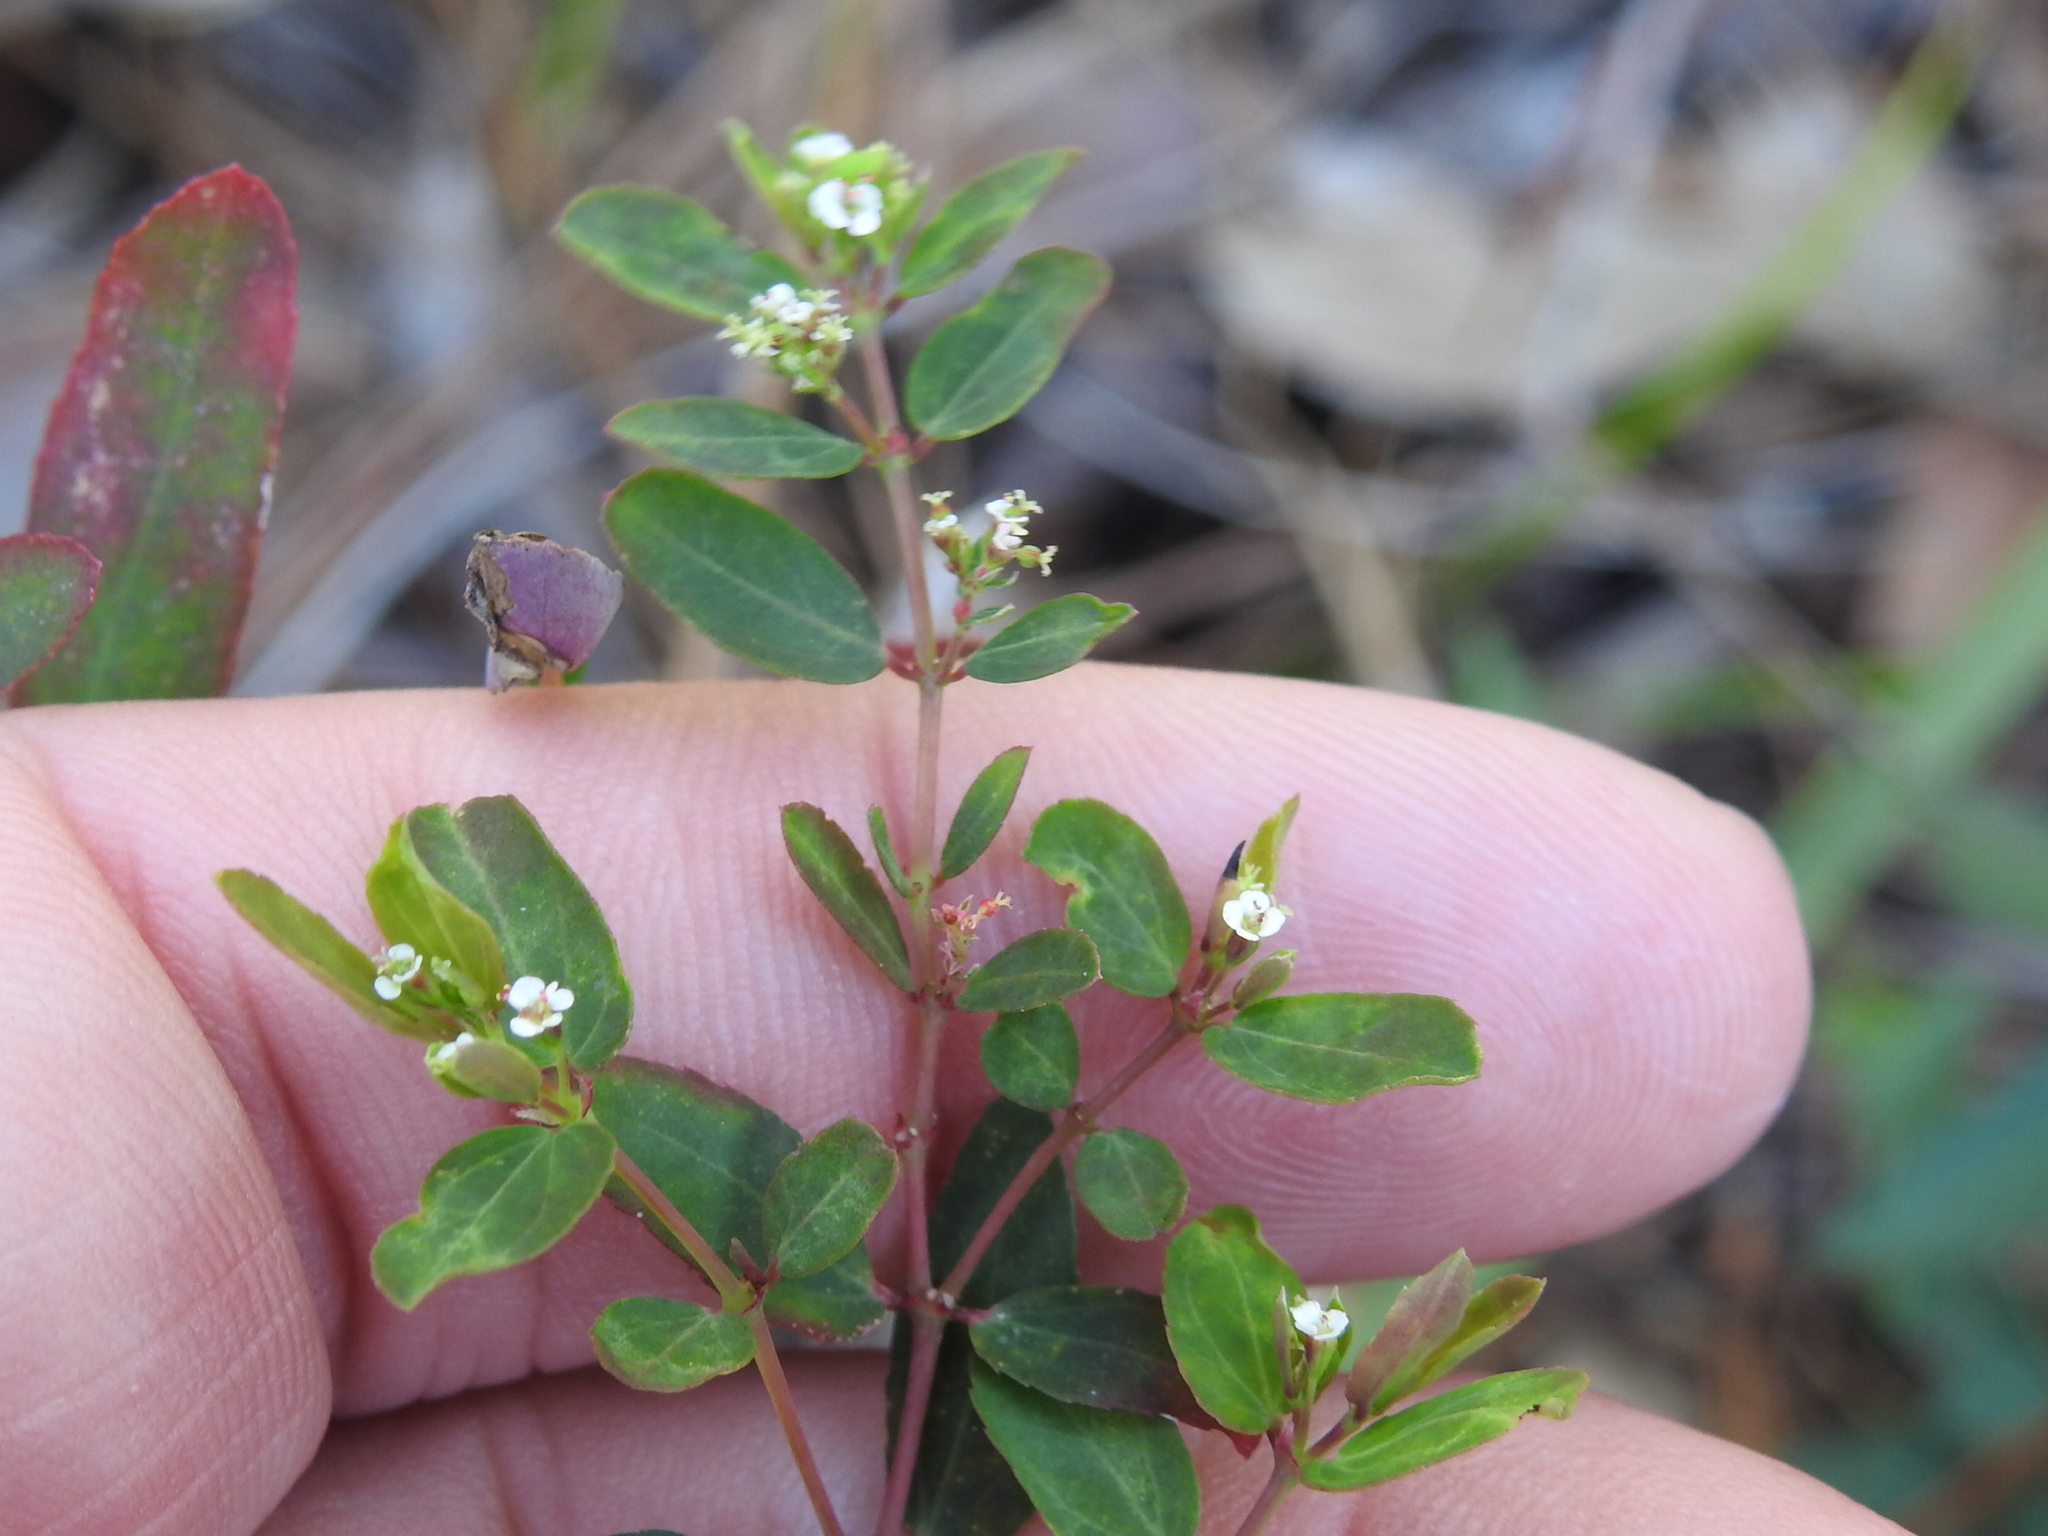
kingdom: Plantae
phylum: Tracheophyta
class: Magnoliopsida
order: Malpighiales
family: Euphorbiaceae
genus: Euphorbia
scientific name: Euphorbia hypericifolia
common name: Graceful sandmat
